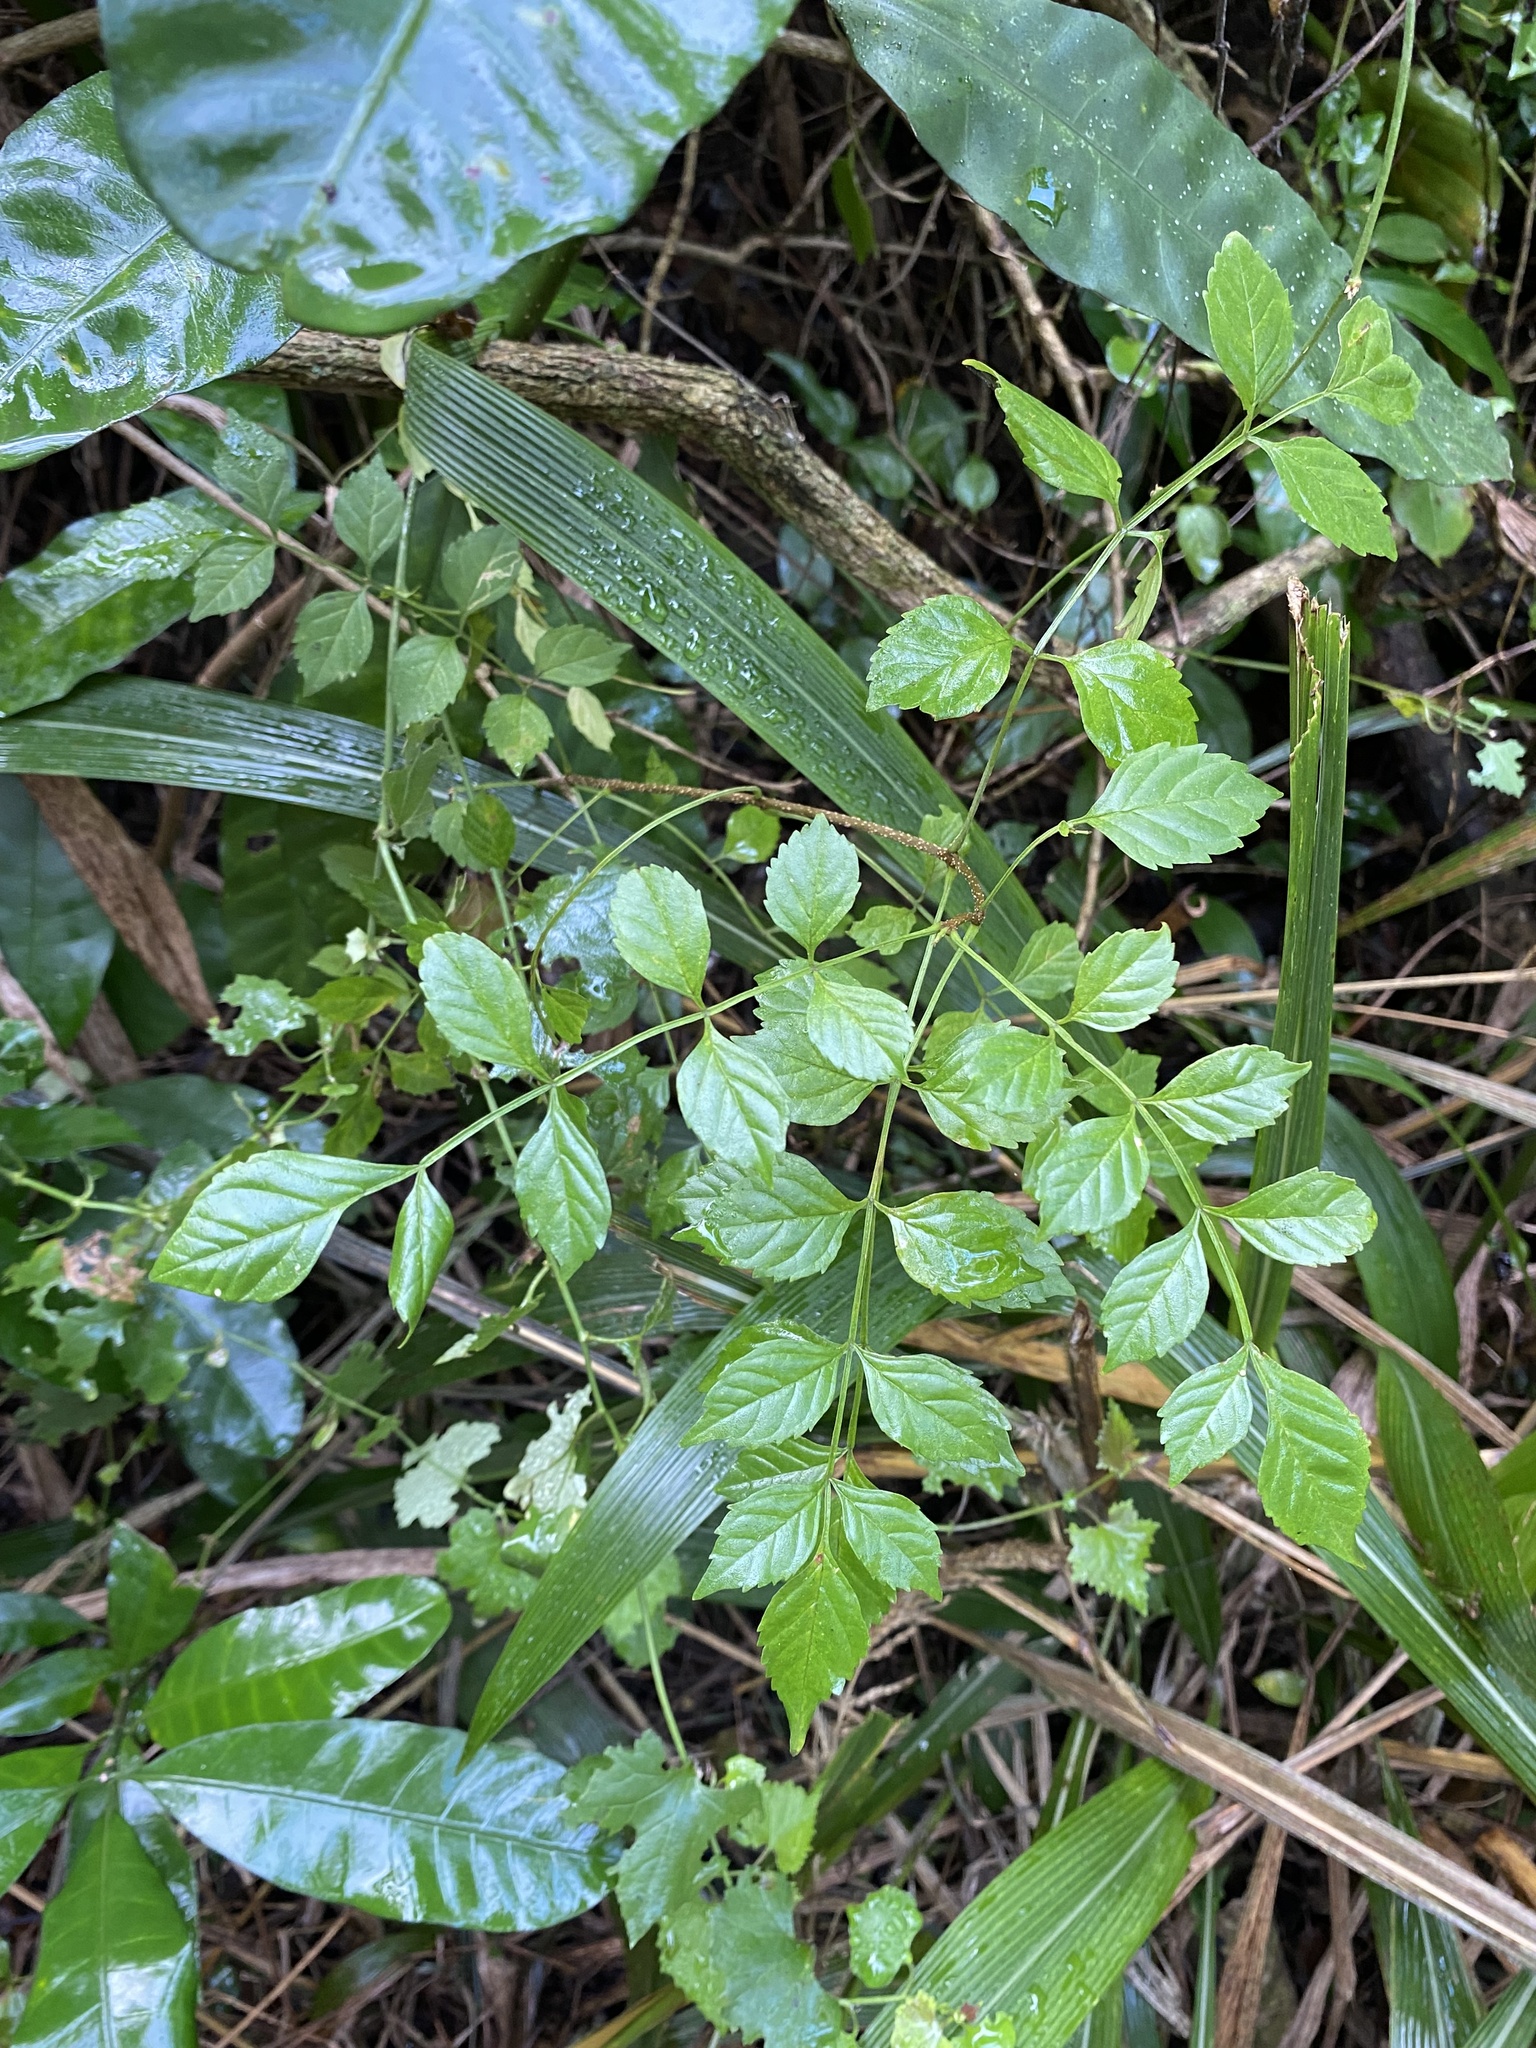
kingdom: Plantae
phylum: Tracheophyta
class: Magnoliopsida
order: Lamiales
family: Bignoniaceae
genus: Tecomaria
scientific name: Tecomaria capensis
